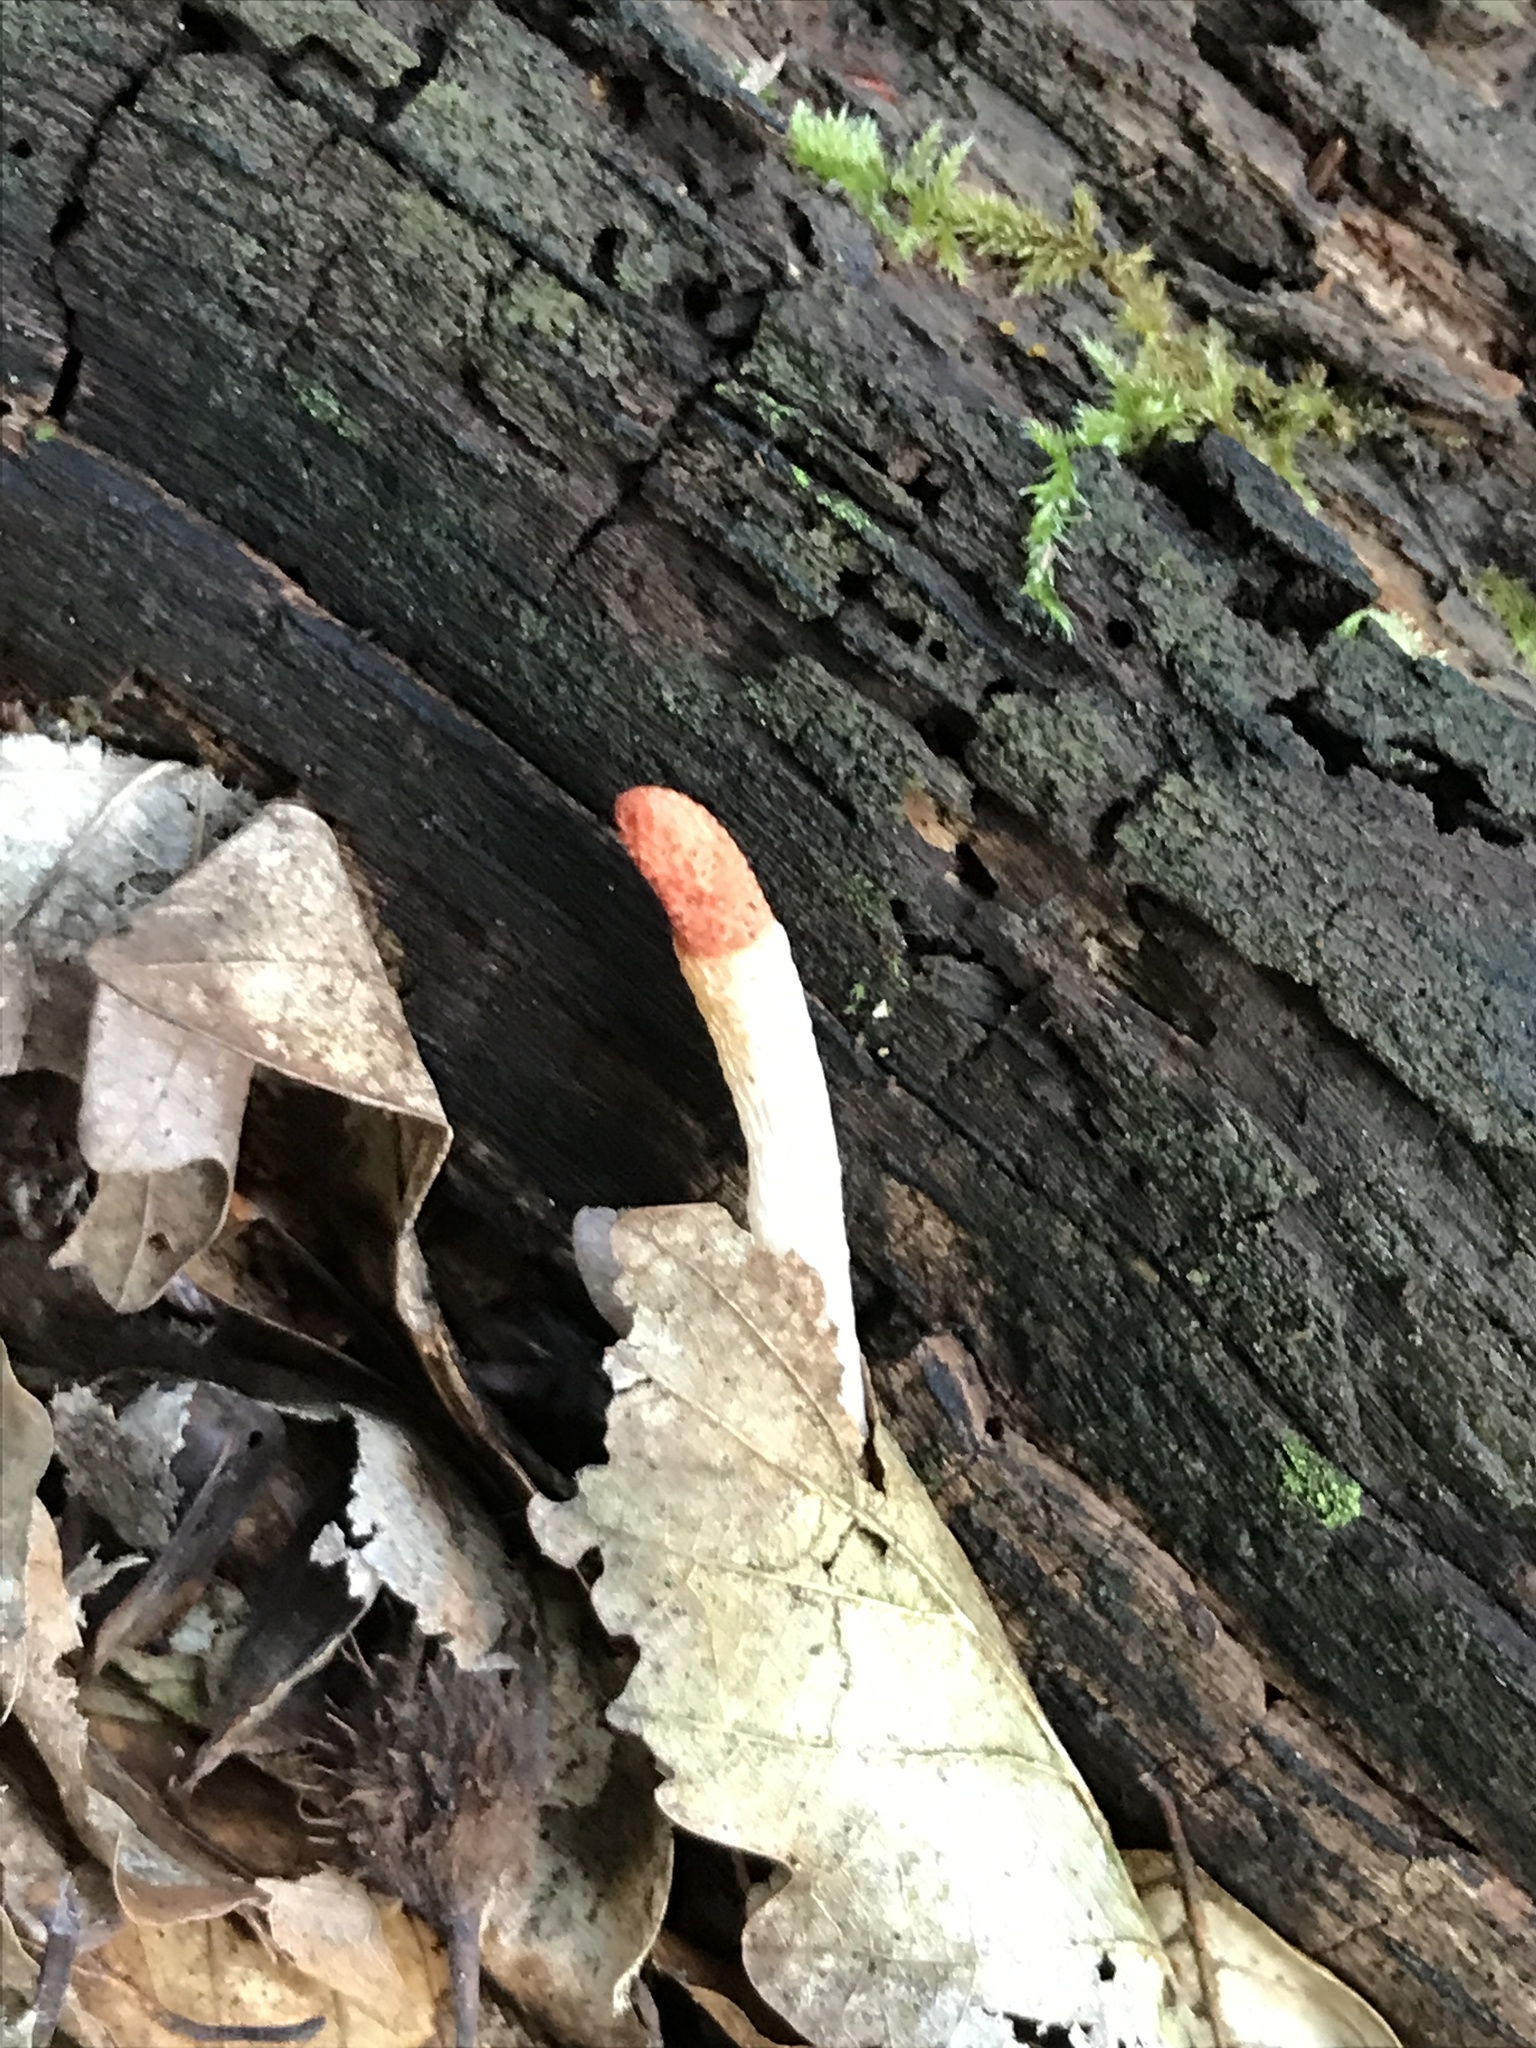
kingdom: Fungi
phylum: Basidiomycota
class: Agaricomycetes
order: Phallales
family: Phallaceae
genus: Mutinus
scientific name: Mutinus caninus
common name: Dog stinkhorn
